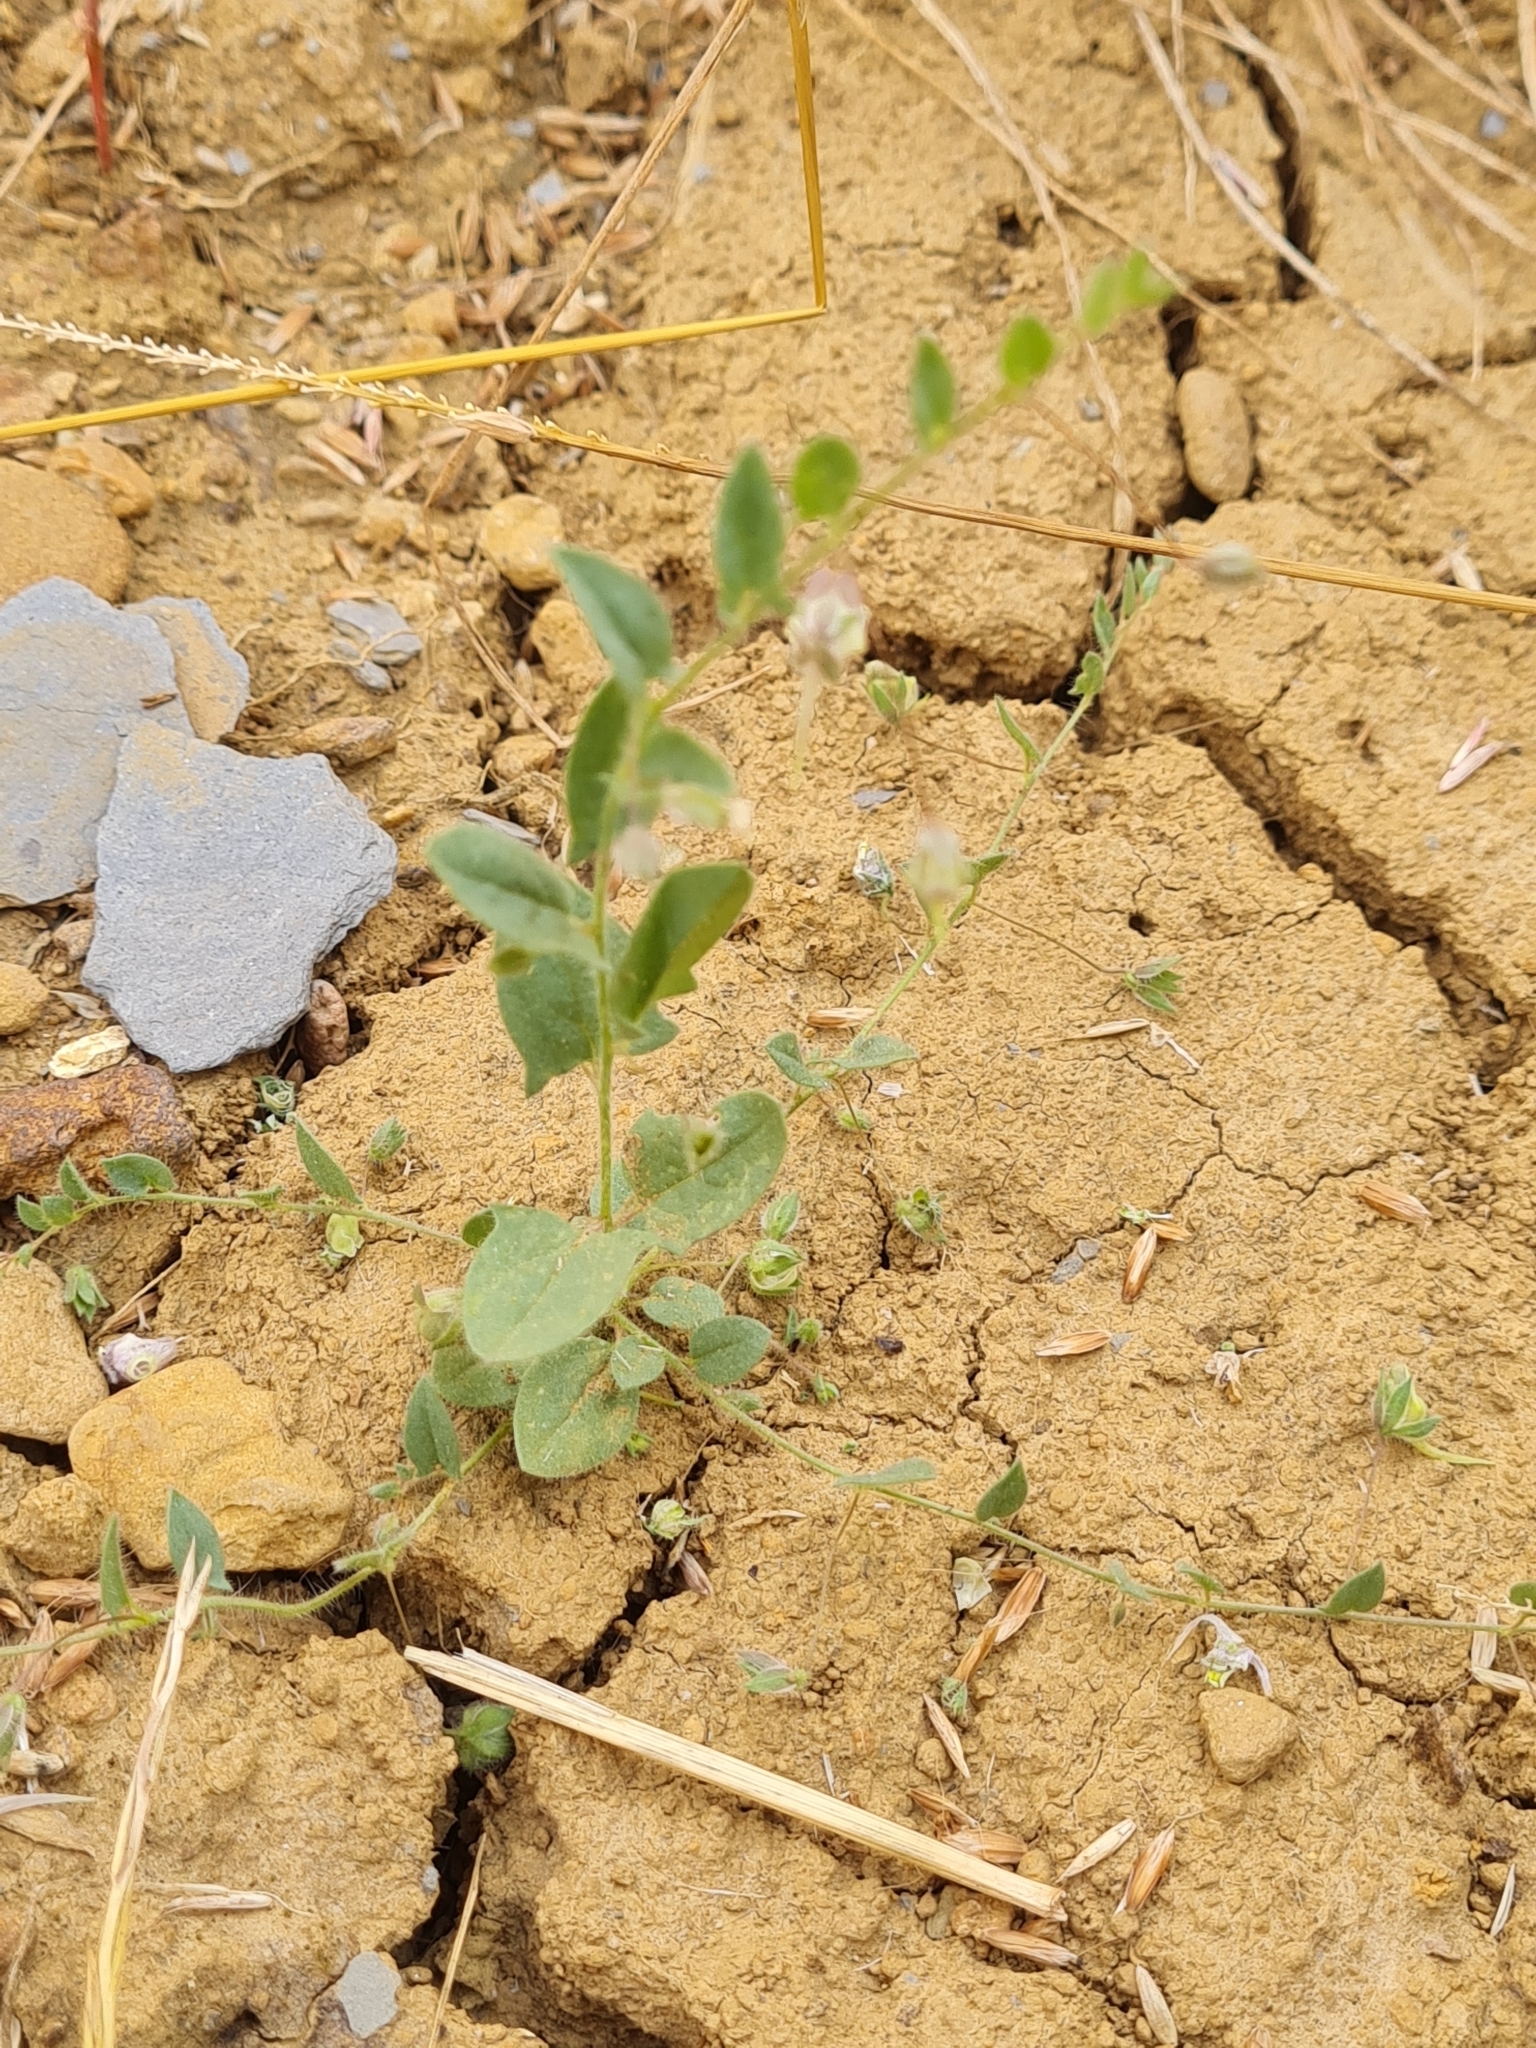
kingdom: Plantae
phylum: Tracheophyta
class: Magnoliopsida
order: Lamiales
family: Plantaginaceae
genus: Kickxia
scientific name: Kickxia elatine
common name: Sharp-leaved fluellen
